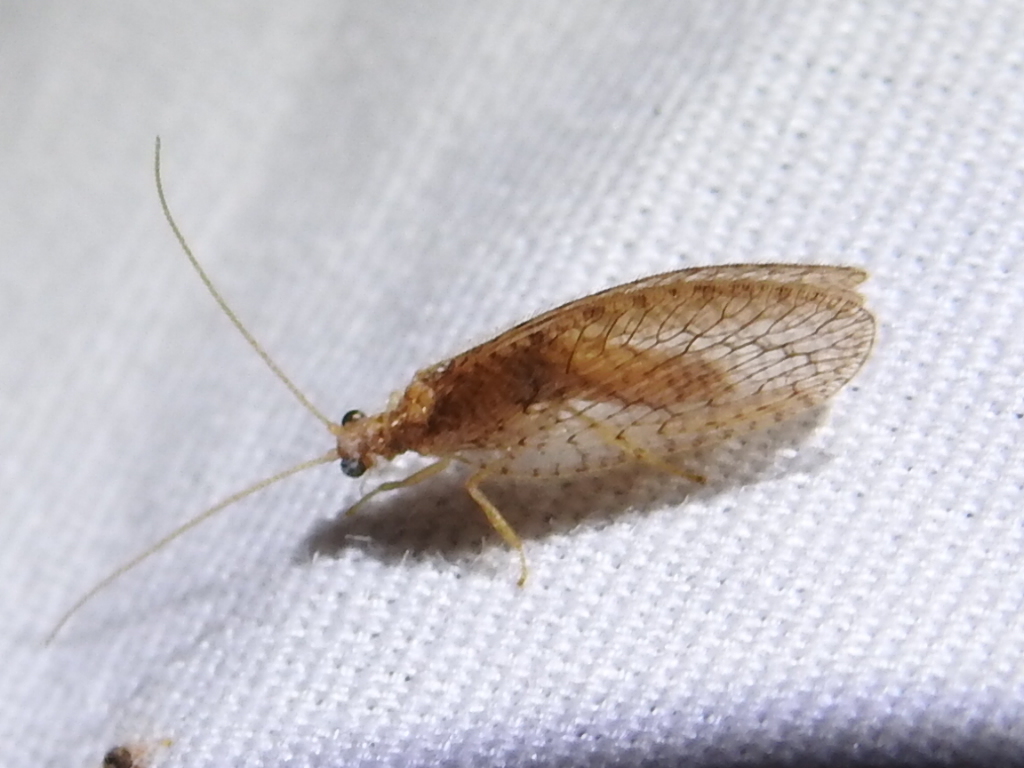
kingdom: Animalia
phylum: Arthropoda
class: Insecta
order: Neuroptera
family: Hemerobiidae
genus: Micromus
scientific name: Micromus posticus
